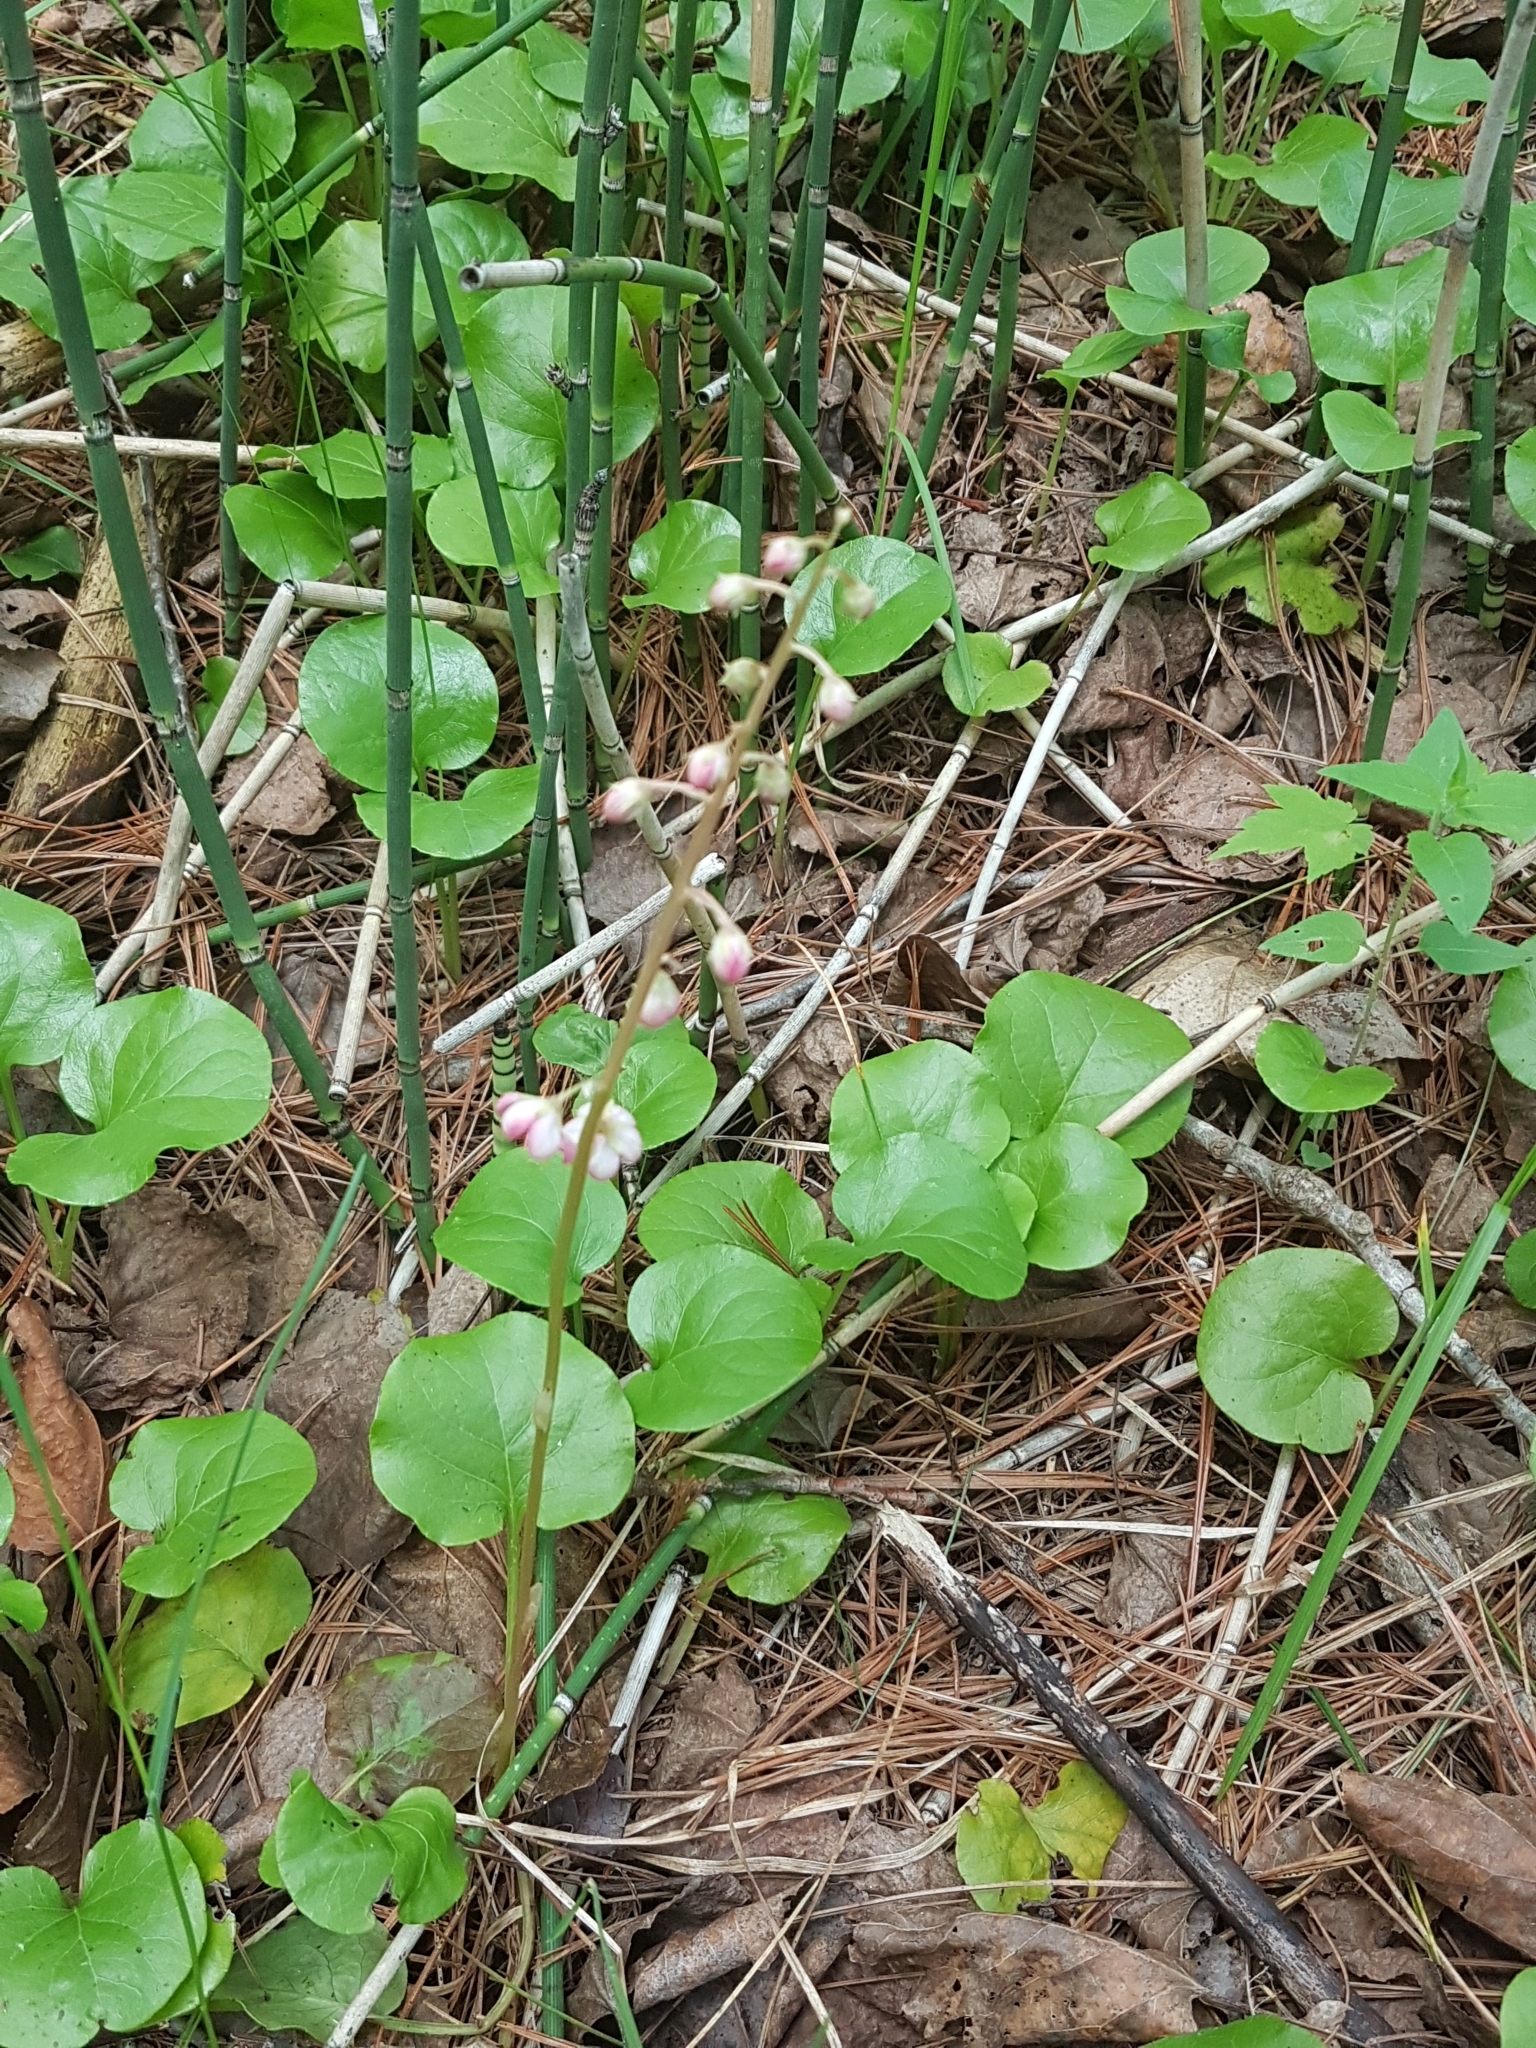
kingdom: Plantae
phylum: Tracheophyta
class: Magnoliopsida
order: Ericales
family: Ericaceae
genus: Pyrola
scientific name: Pyrola asarifolia
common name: Bog wintergreen
